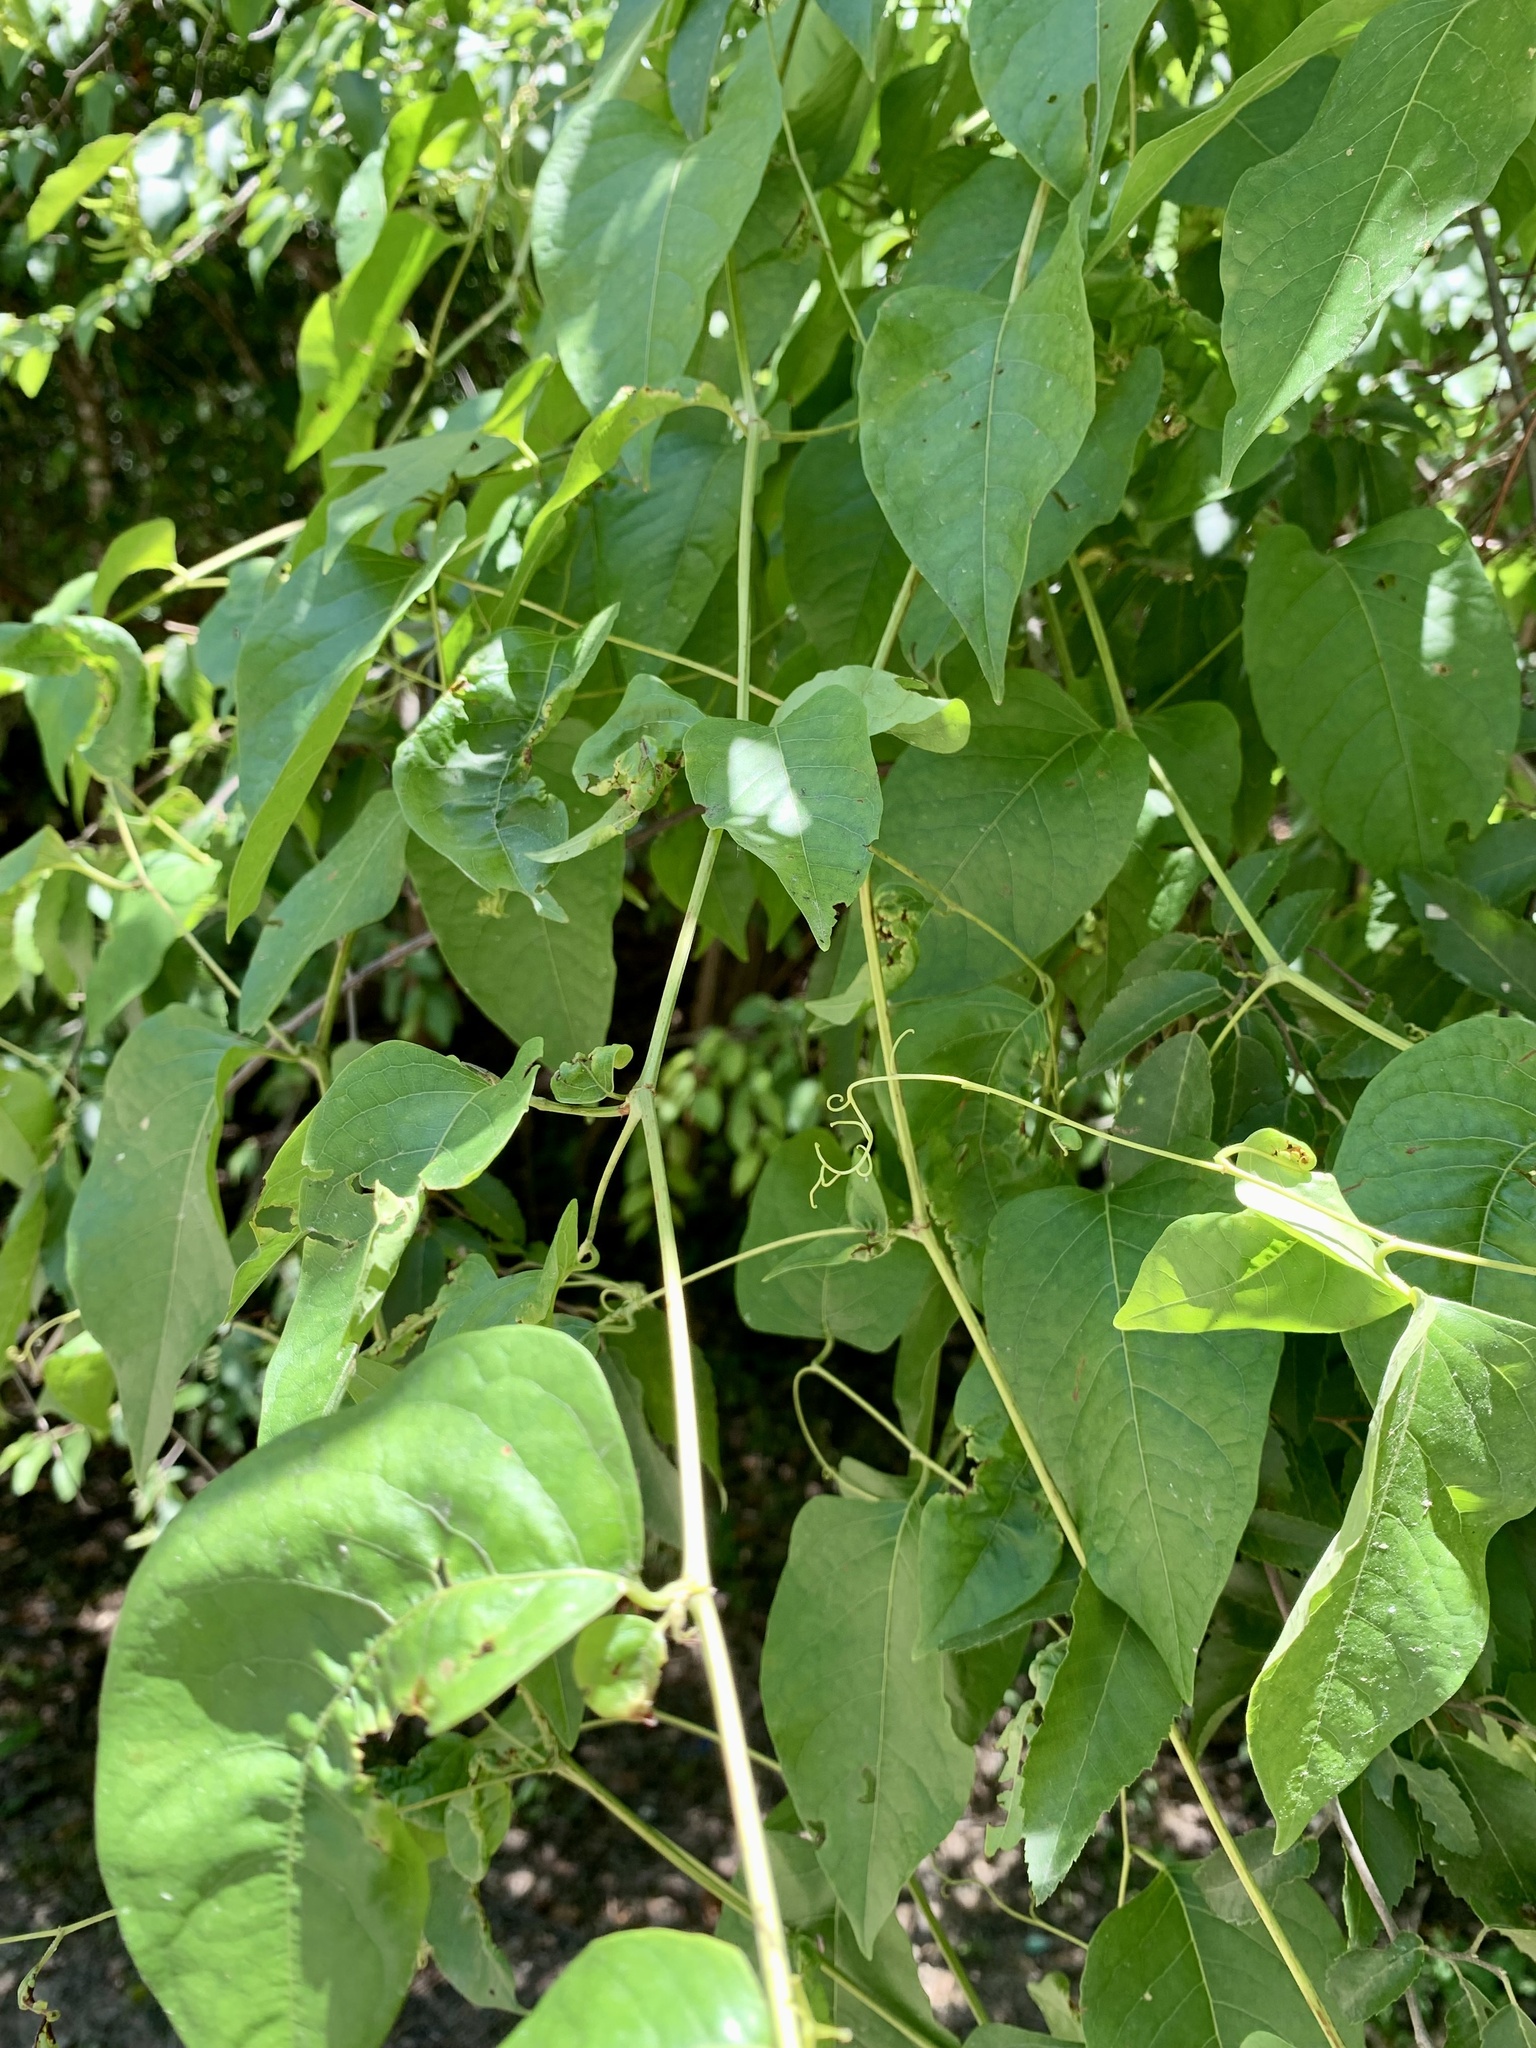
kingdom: Plantae
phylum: Tracheophyta
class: Magnoliopsida
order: Caryophyllales
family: Polygonaceae
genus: Brunnichia
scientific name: Brunnichia ovata
